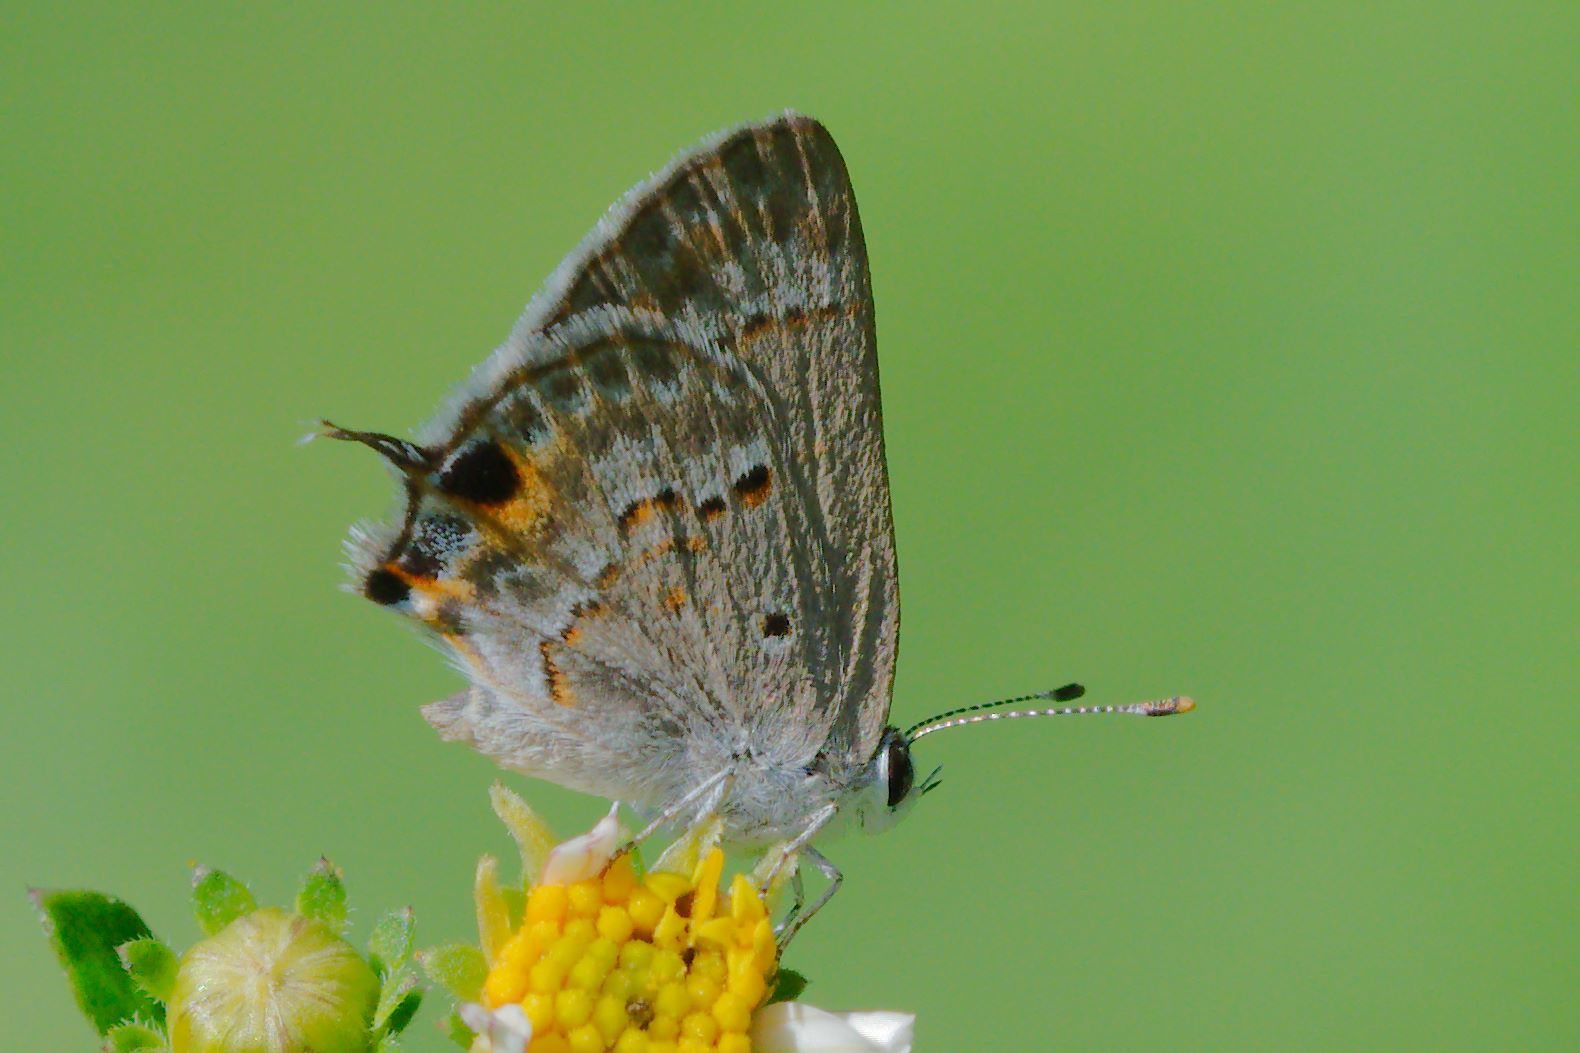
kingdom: Animalia
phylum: Arthropoda
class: Insecta
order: Lepidoptera
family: Lycaenidae
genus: Callicista
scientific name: Callicista columella
